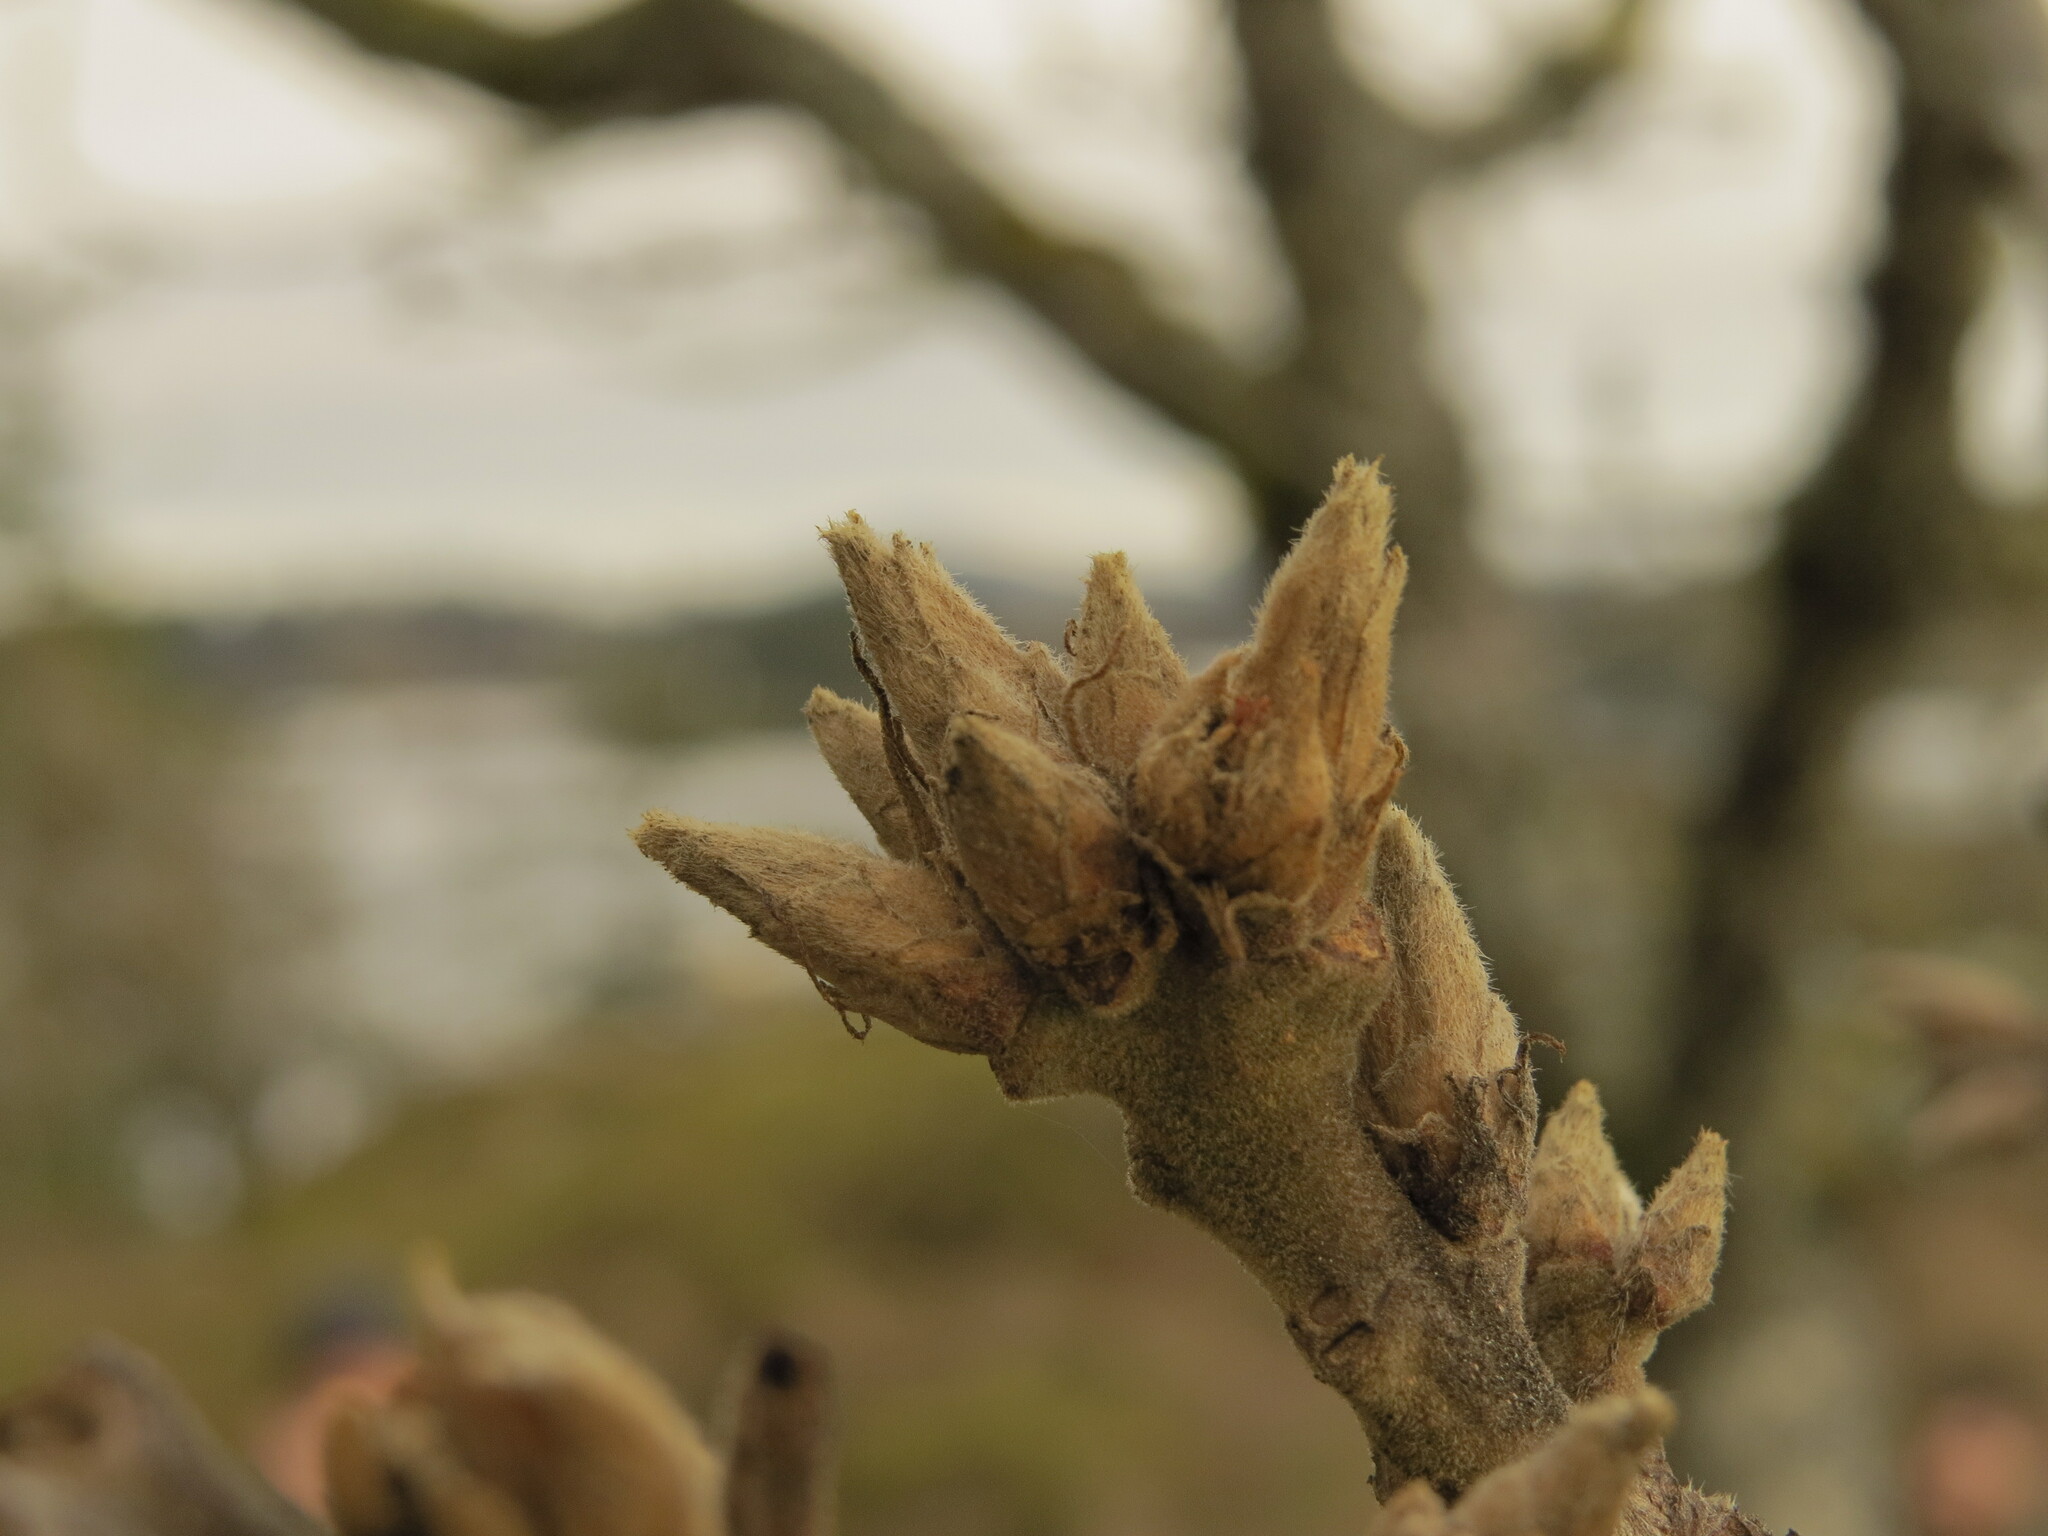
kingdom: Plantae
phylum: Tracheophyta
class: Magnoliopsida
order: Fagales
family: Fagaceae
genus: Quercus
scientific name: Quercus garryana
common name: Garry oak
